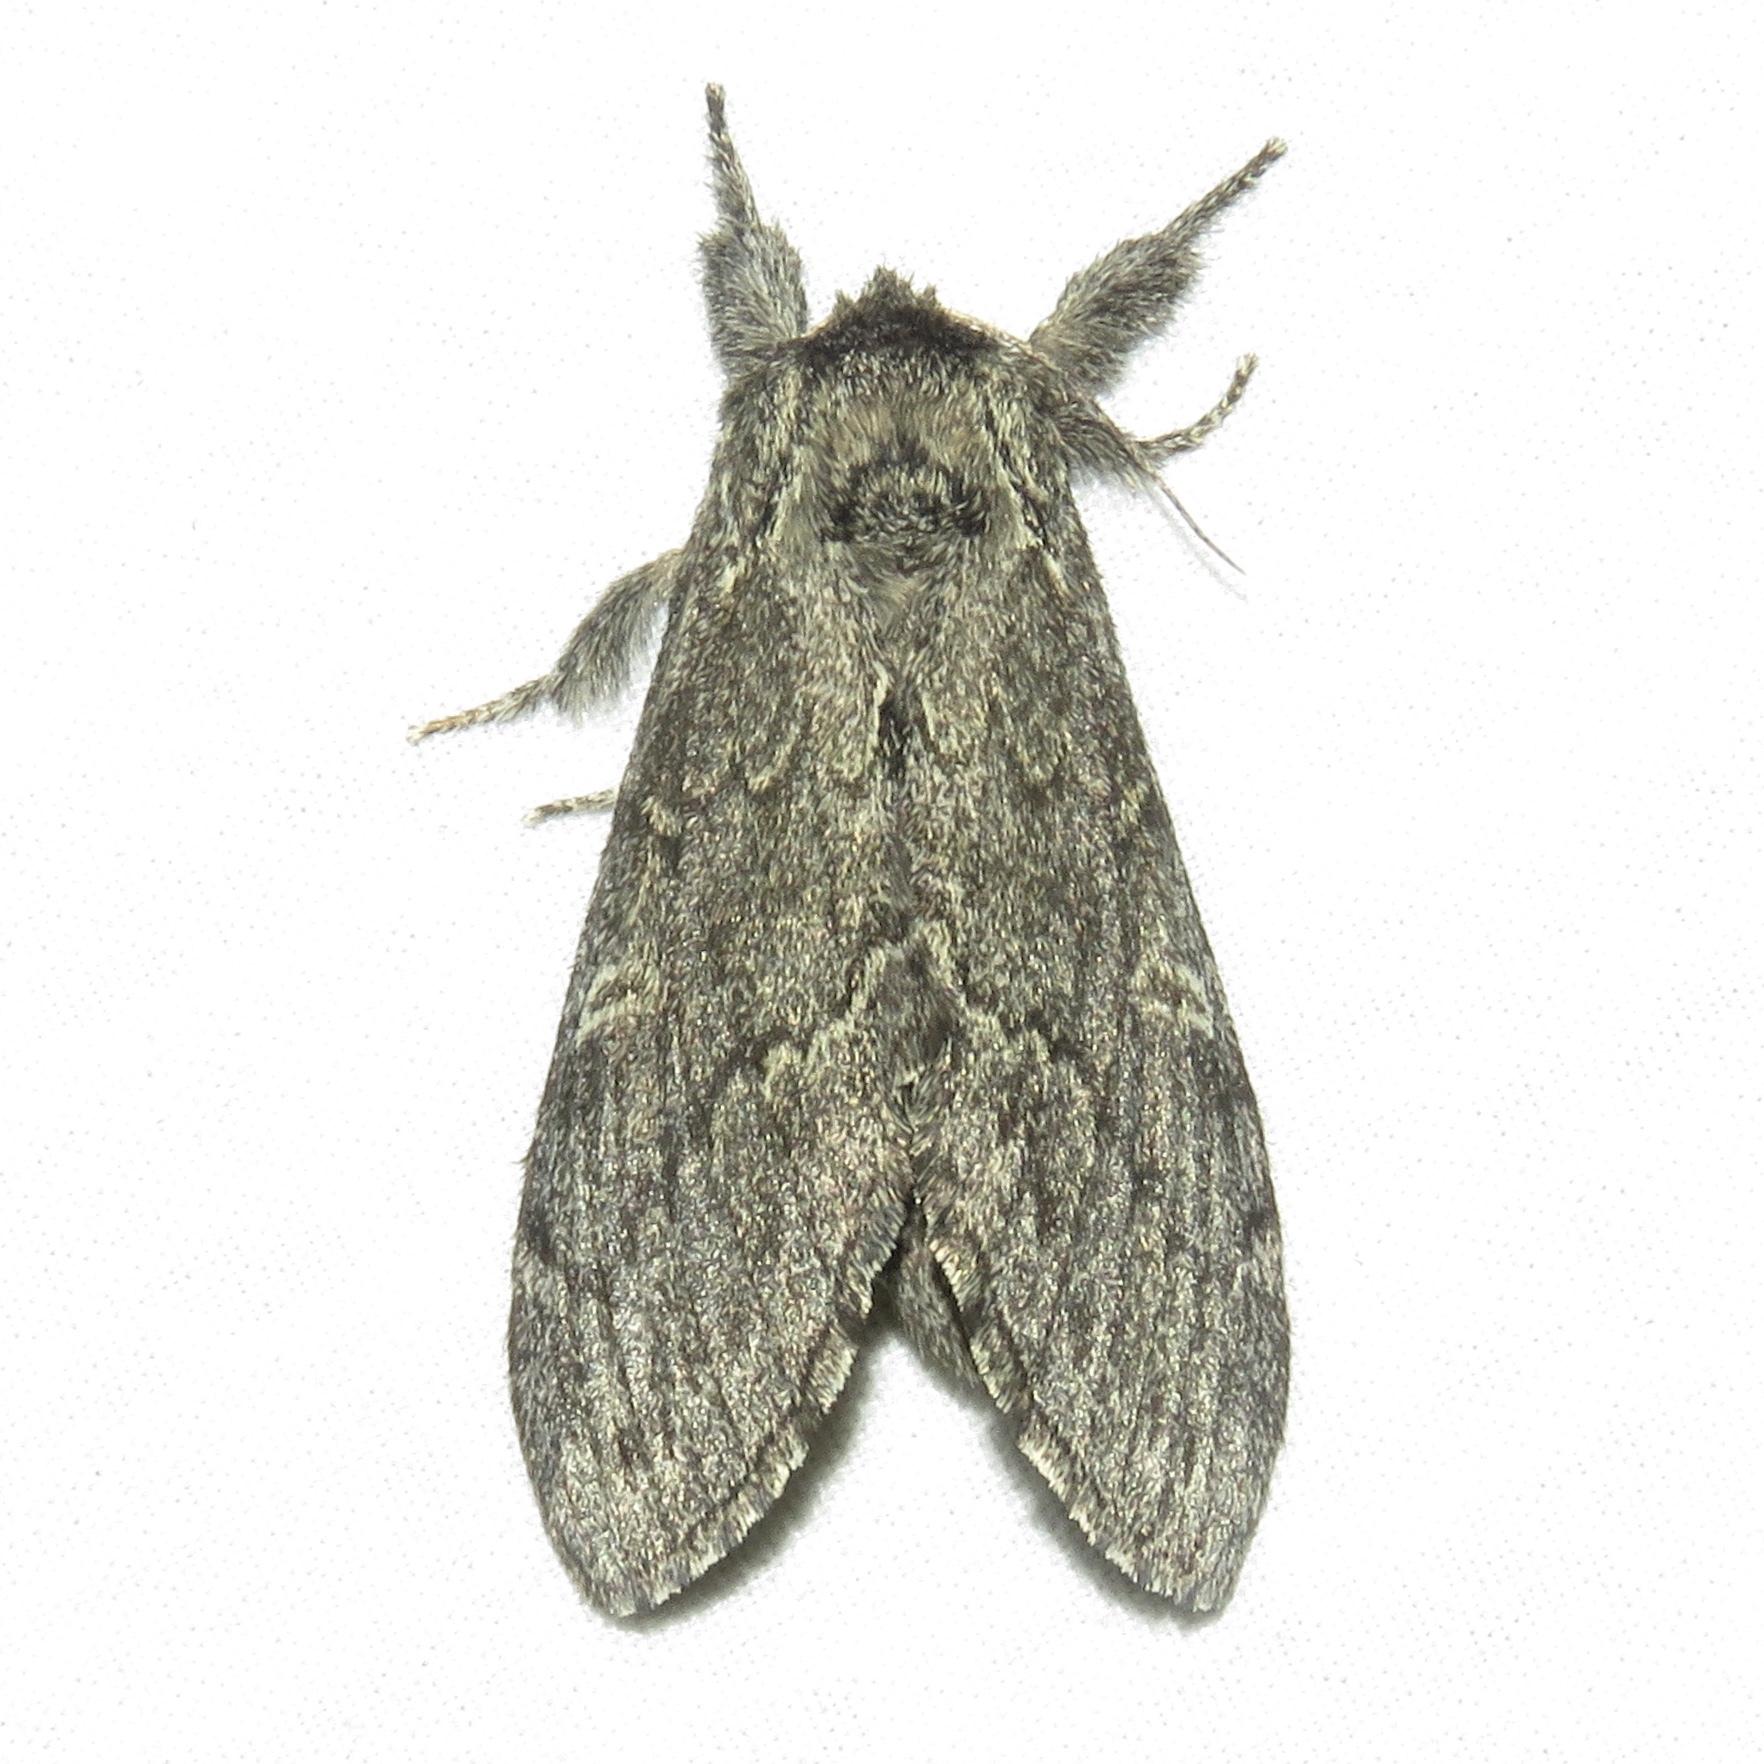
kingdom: Animalia
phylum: Arthropoda
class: Insecta
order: Lepidoptera
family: Notodontidae
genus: Notodonta
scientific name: Notodonta torva
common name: Large dark prominent
